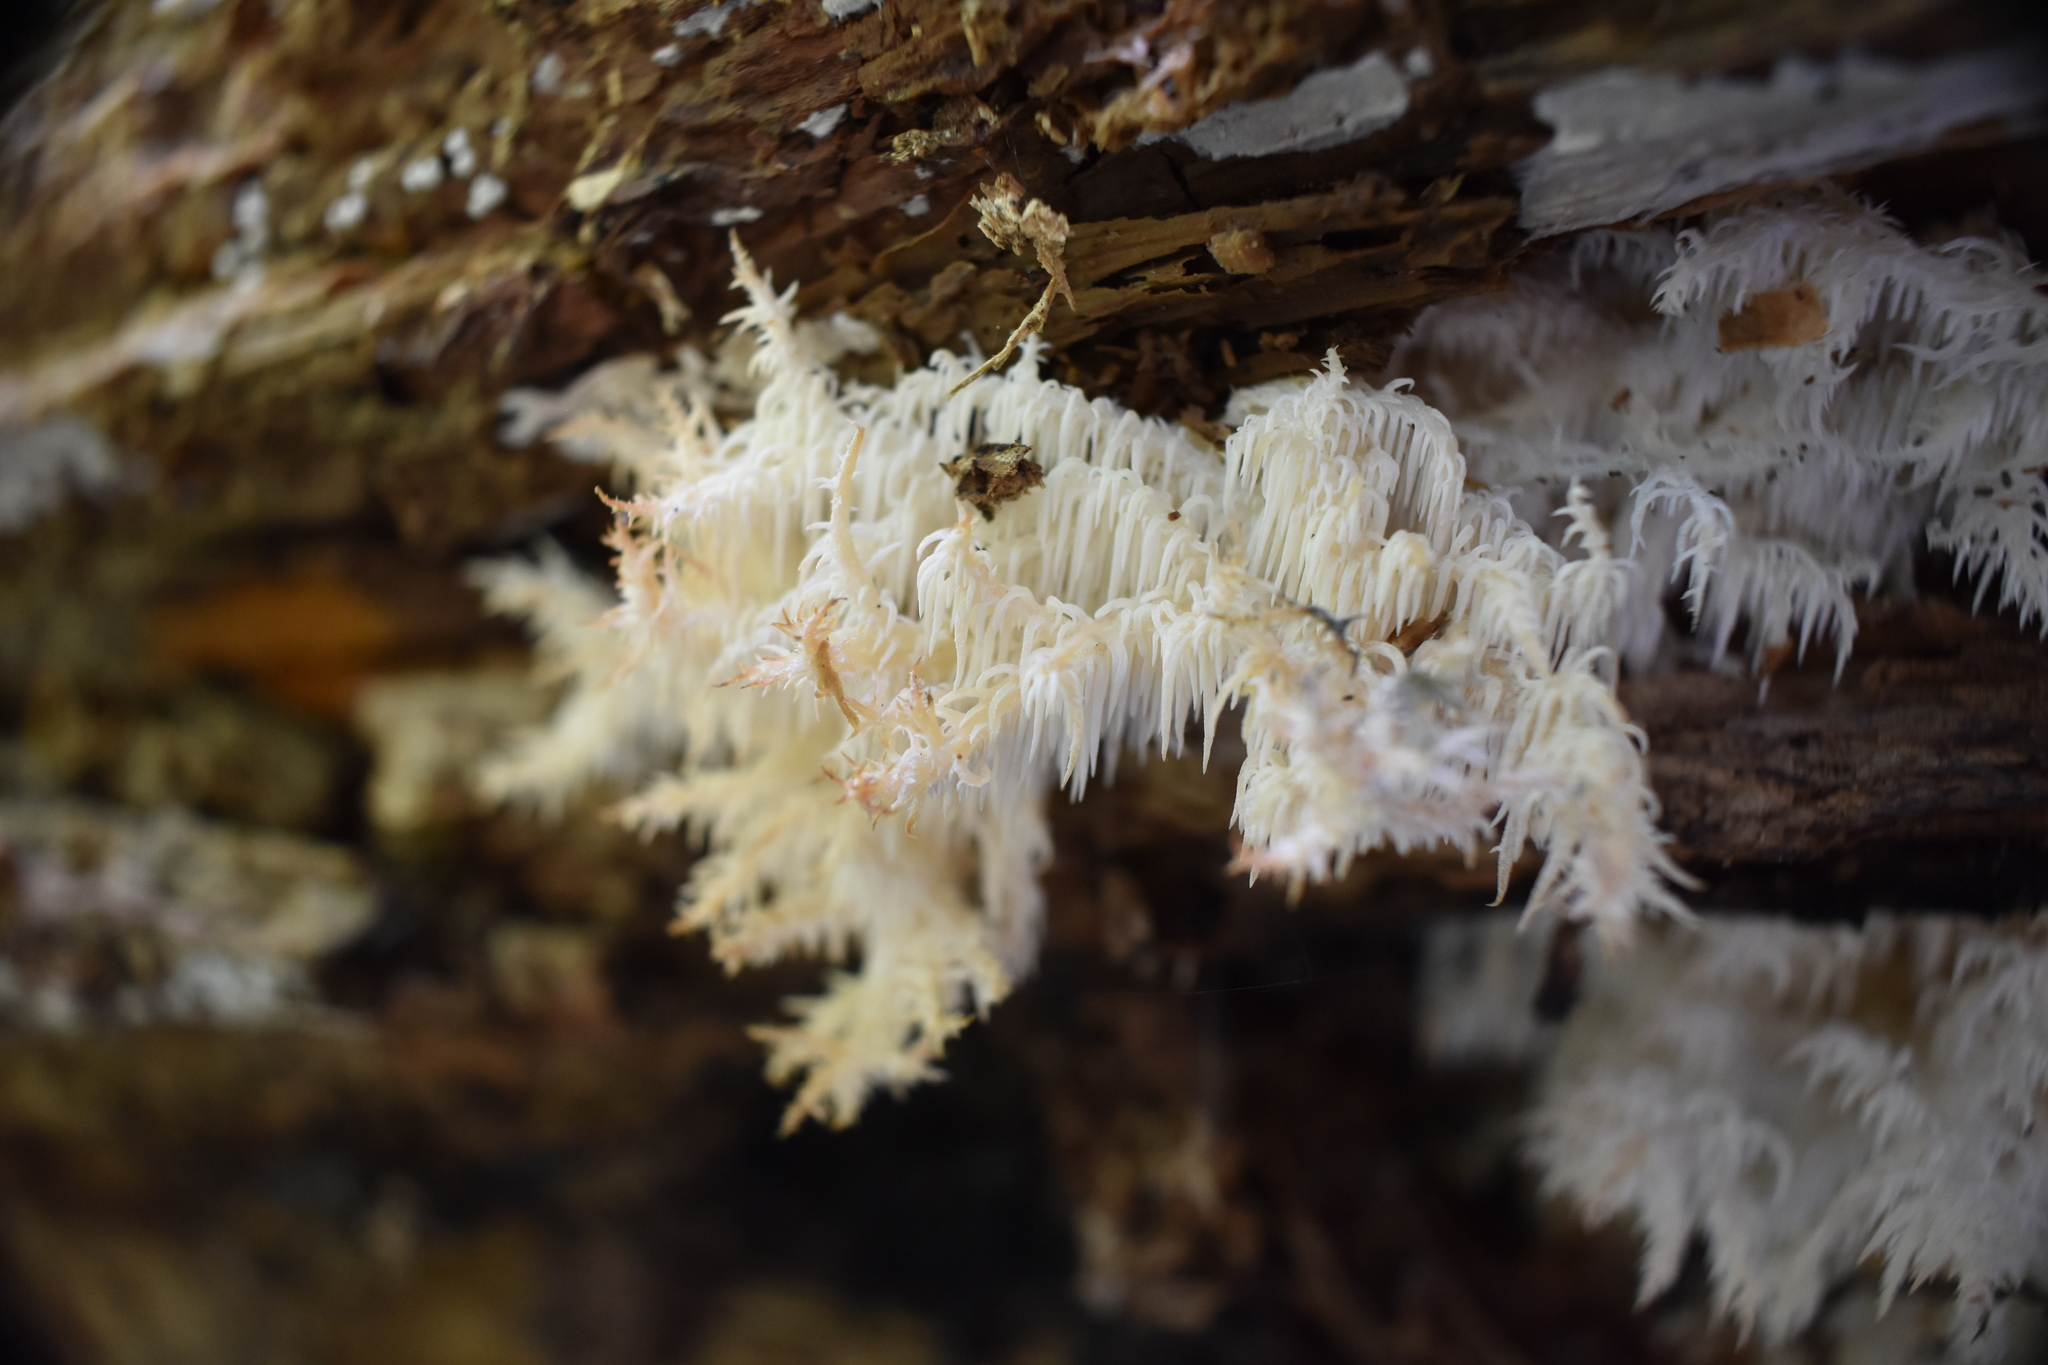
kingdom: Fungi
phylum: Basidiomycota
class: Agaricomycetes
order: Russulales
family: Hericiaceae
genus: Hericium
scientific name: Hericium novae-zealandiae
